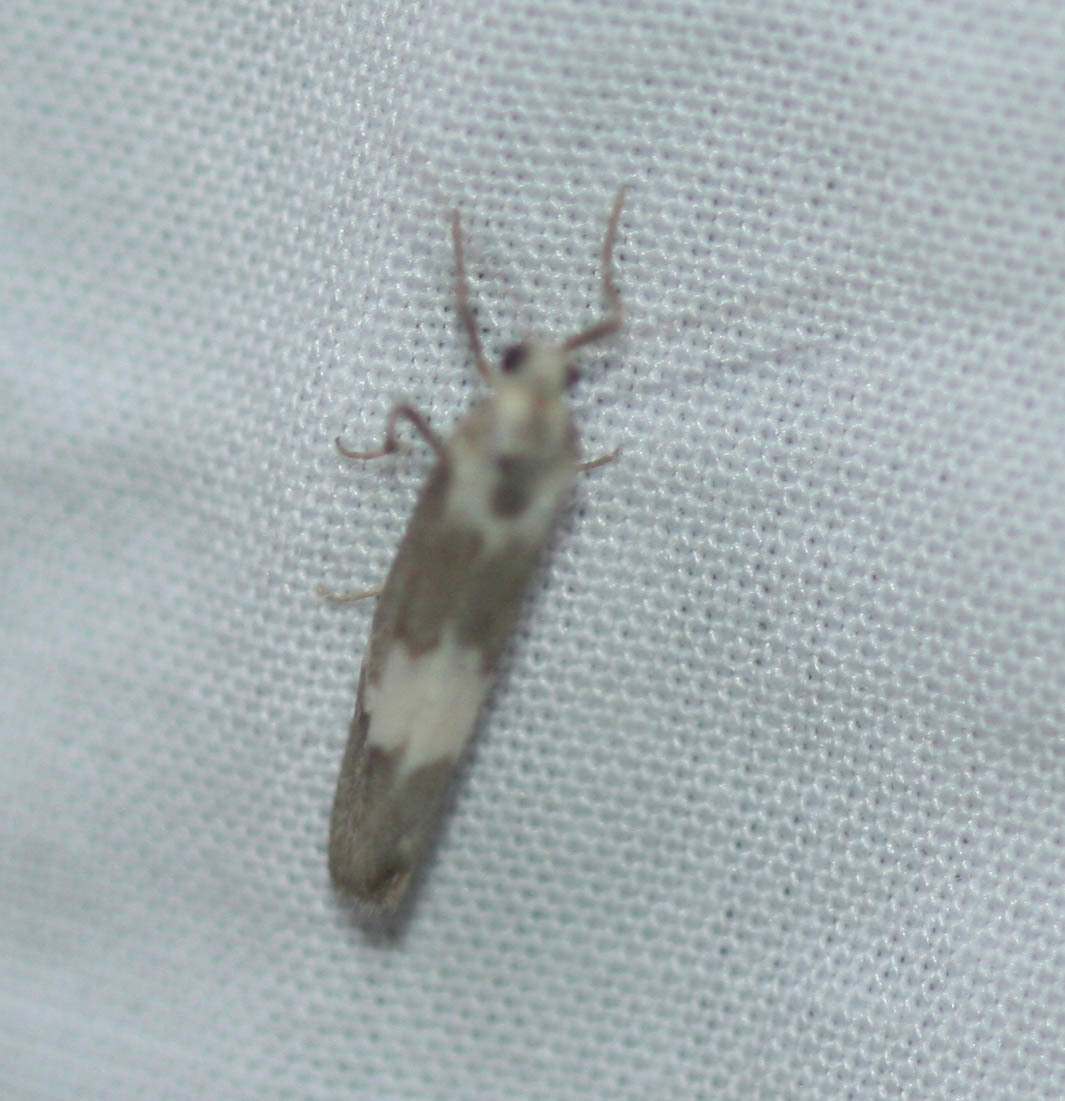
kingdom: Animalia
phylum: Arthropoda
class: Insecta
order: Lepidoptera
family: Erebidae
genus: Cisthene
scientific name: Cisthene deserta
